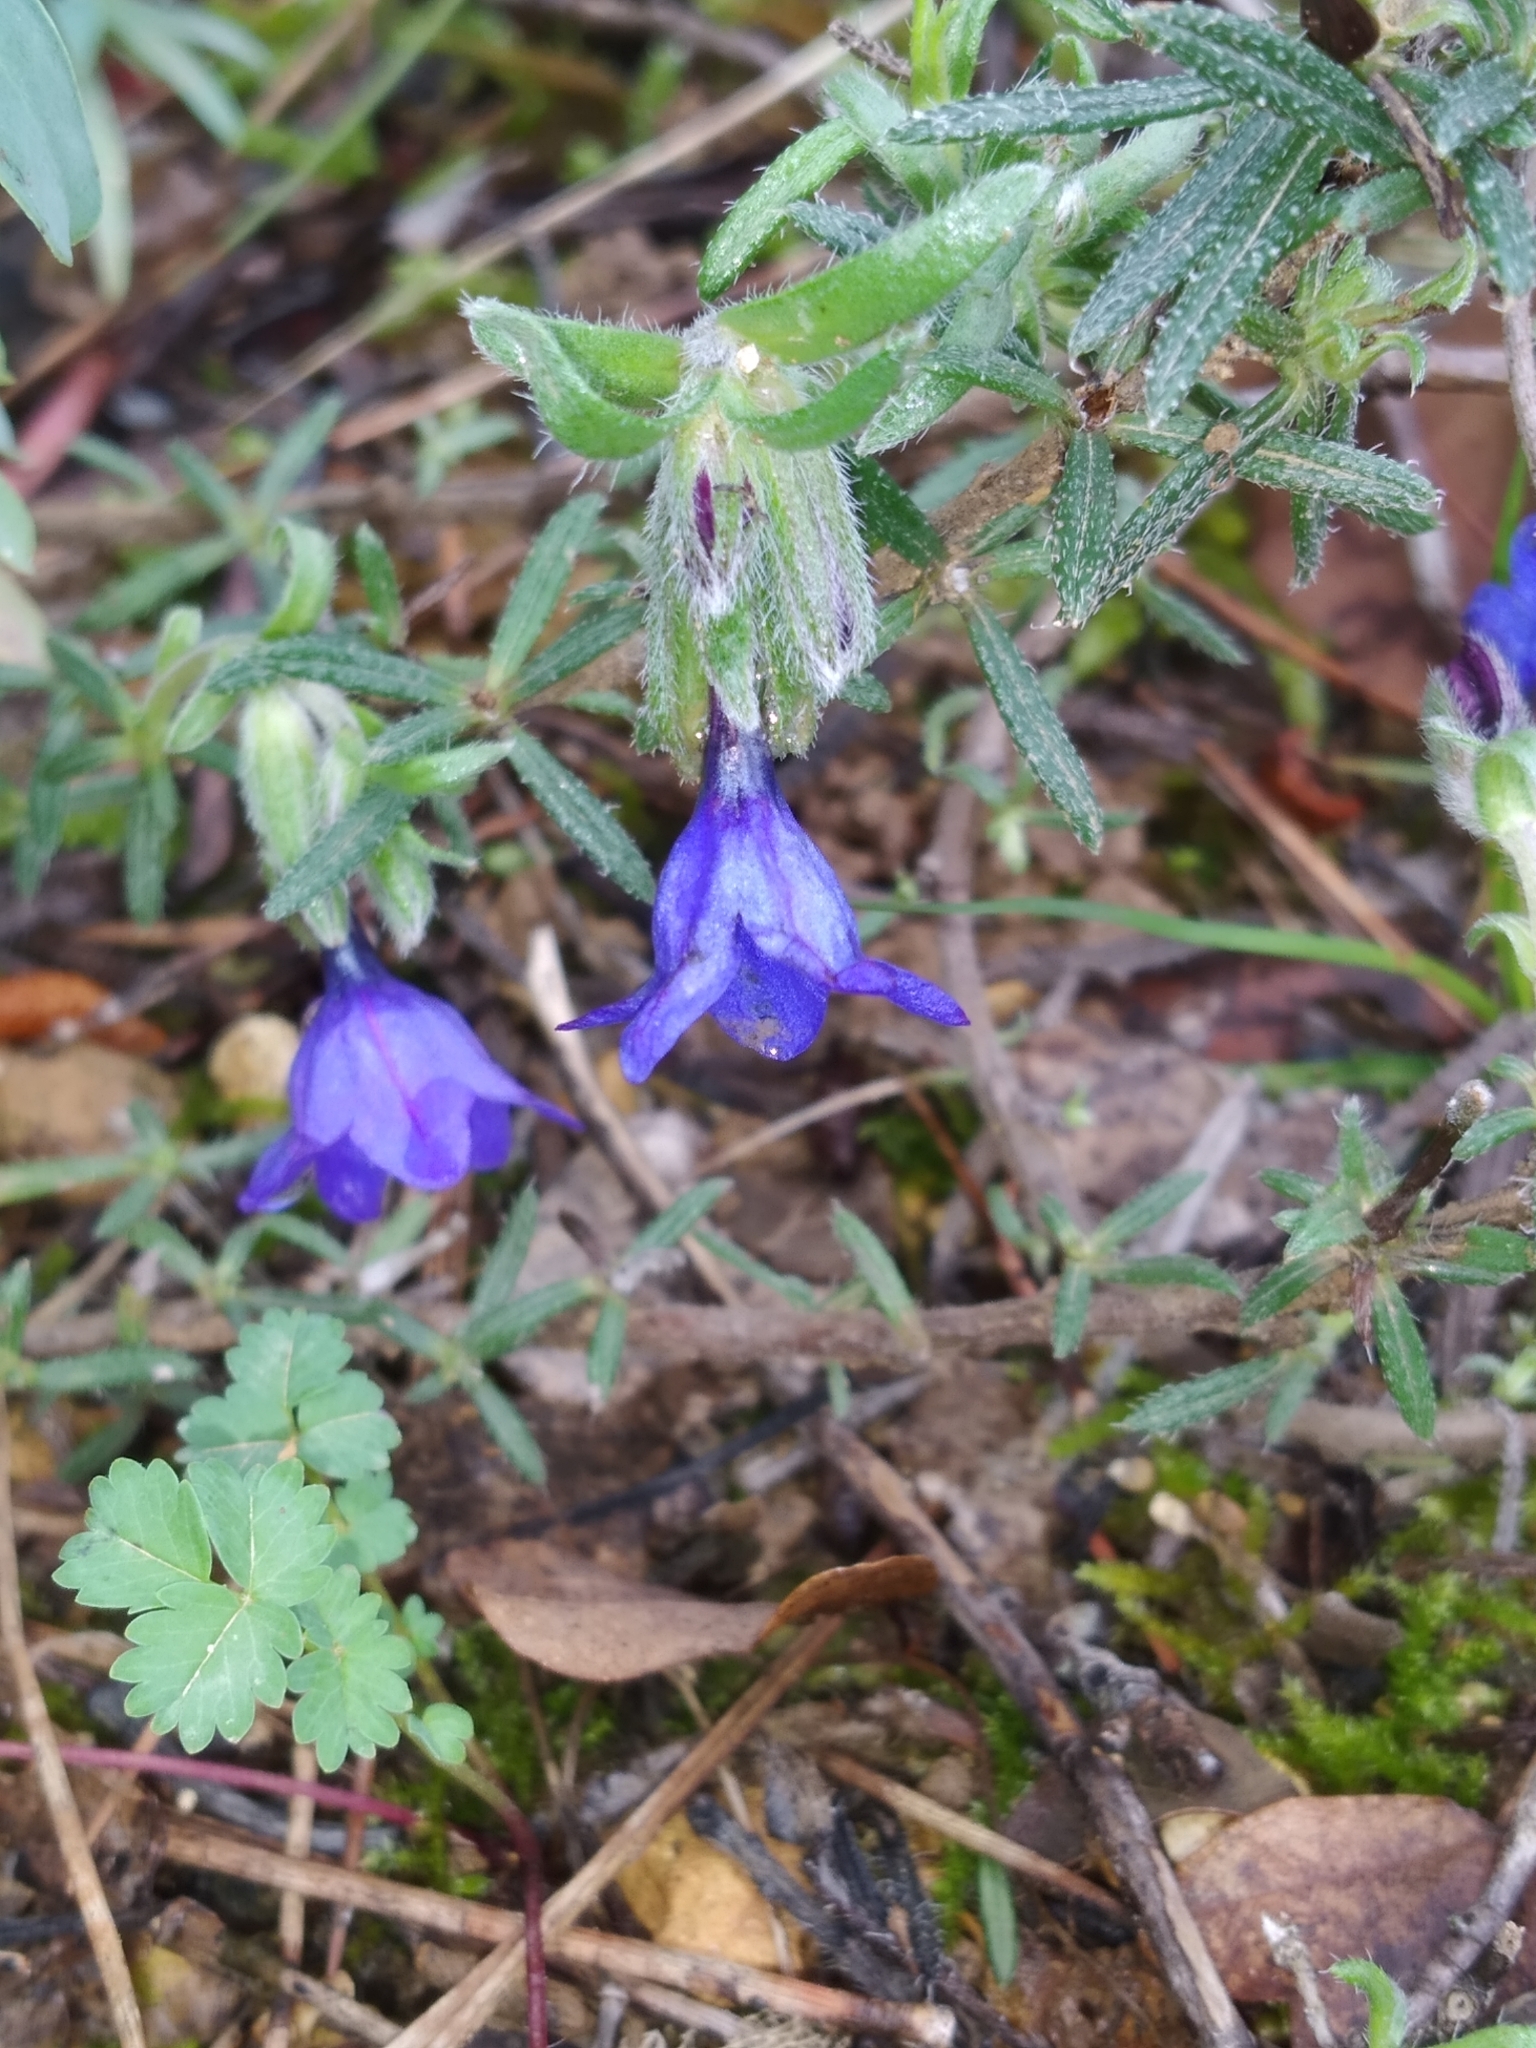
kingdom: Plantae
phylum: Tracheophyta
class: Magnoliopsida
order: Boraginales
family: Boraginaceae
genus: Lithodora
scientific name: Lithodora fruticosa
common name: Shrubby gromwell
